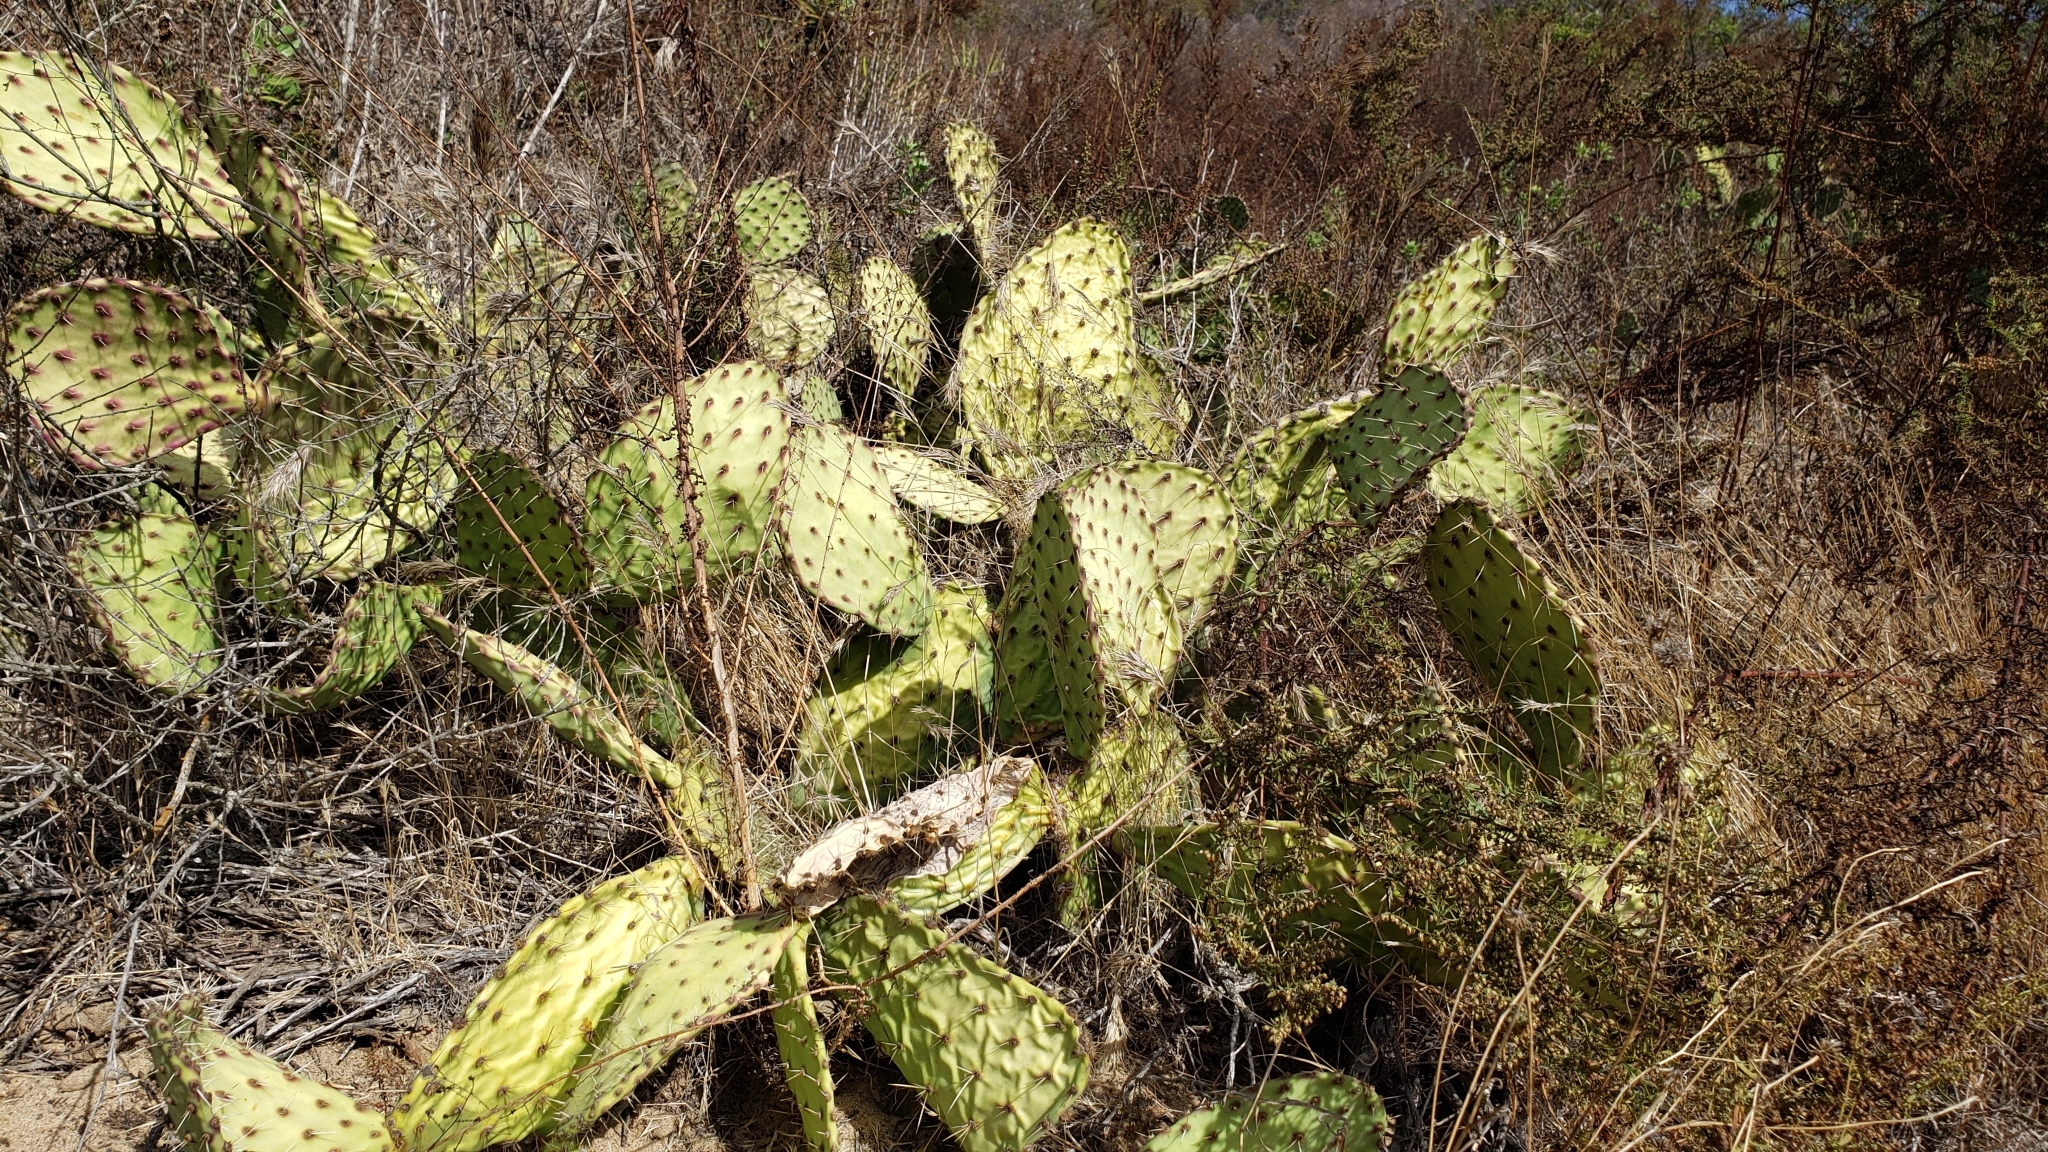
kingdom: Plantae
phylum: Tracheophyta
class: Magnoliopsida
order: Caryophyllales
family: Cactaceae
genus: Opuntia
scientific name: Opuntia littoralis
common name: Coastal prickly-pear
